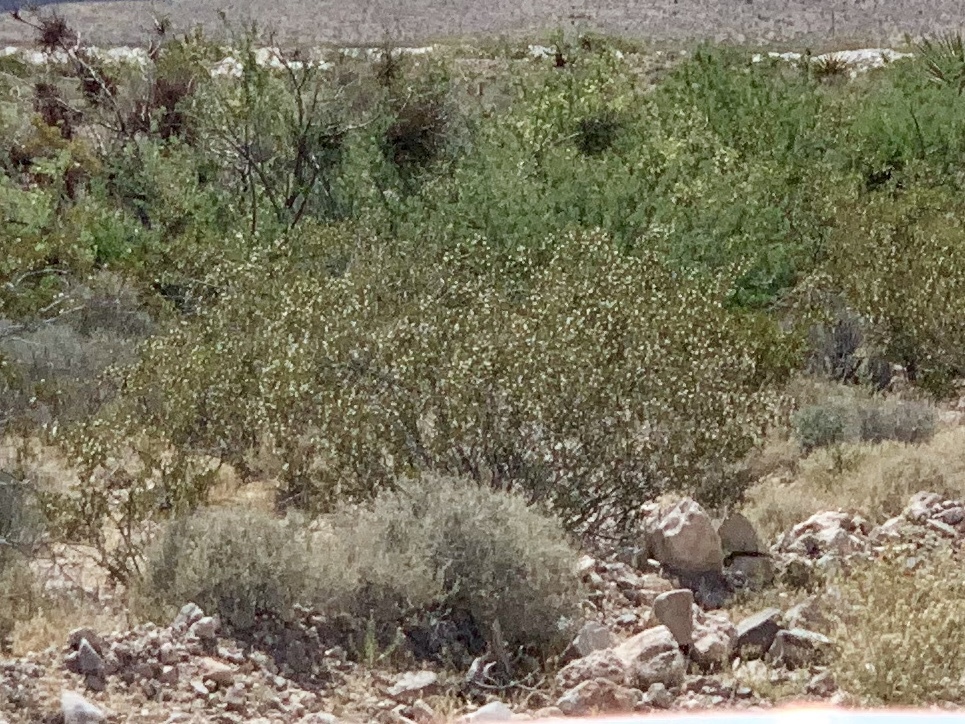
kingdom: Plantae
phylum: Tracheophyta
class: Magnoliopsida
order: Zygophyllales
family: Zygophyllaceae
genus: Larrea
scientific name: Larrea tridentata
